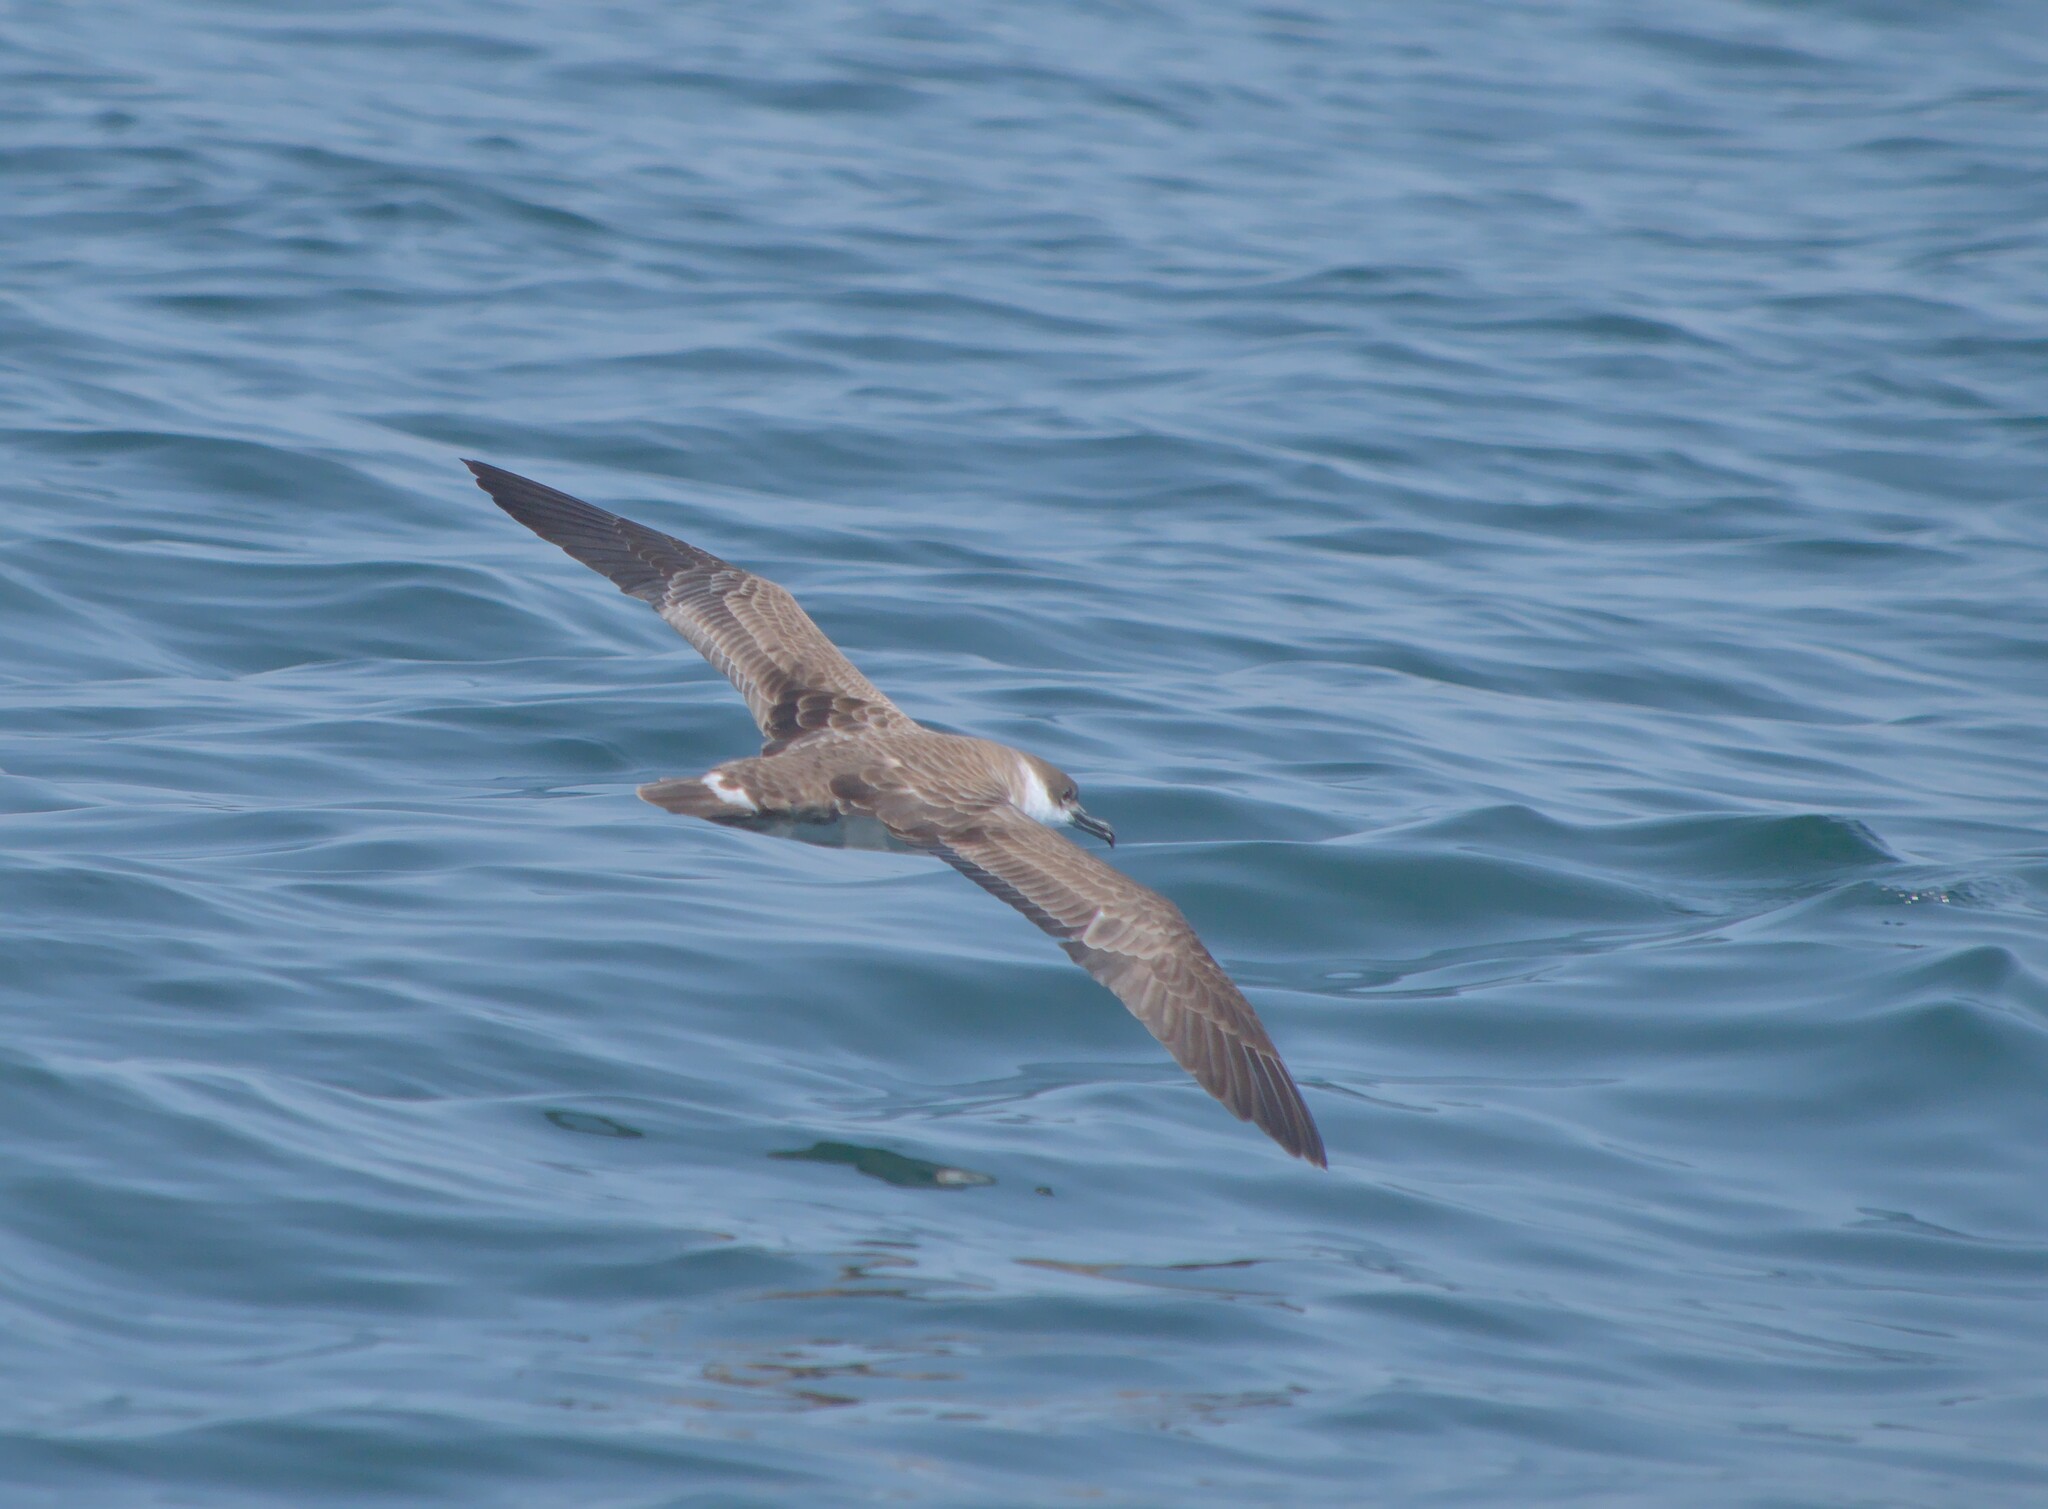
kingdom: Animalia
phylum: Chordata
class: Aves
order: Procellariiformes
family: Procellariidae
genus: Puffinus
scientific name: Puffinus gravis
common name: Great shearwater
